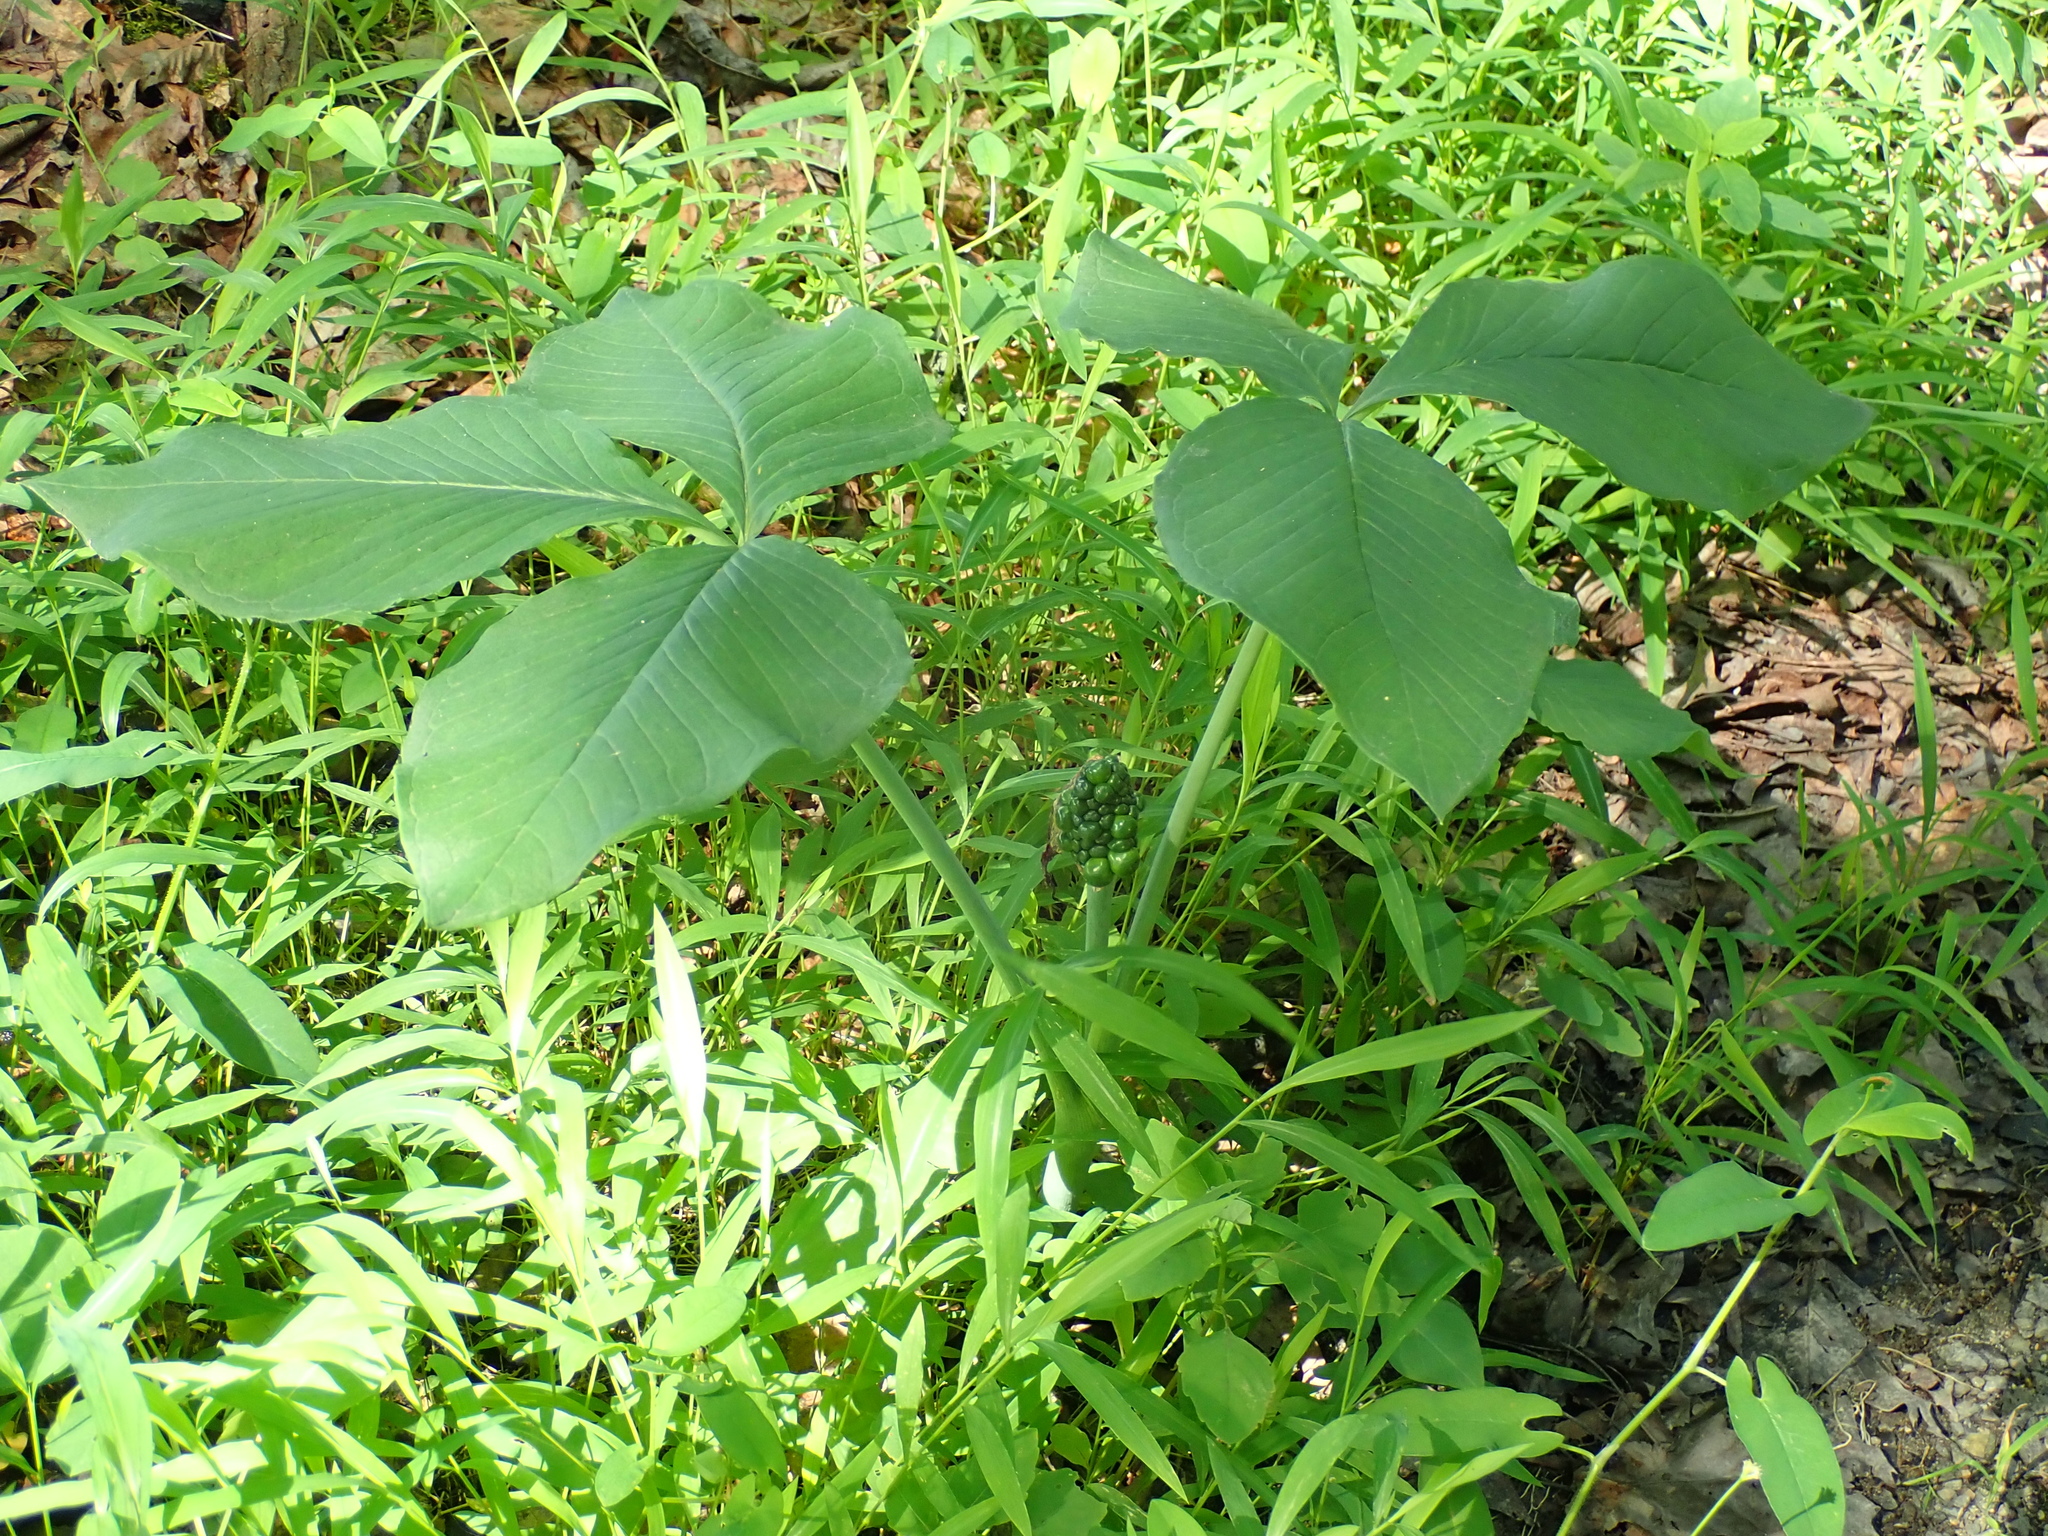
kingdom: Plantae
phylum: Tracheophyta
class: Liliopsida
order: Alismatales
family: Araceae
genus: Arisaema
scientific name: Arisaema triphyllum
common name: Jack-in-the-pulpit
